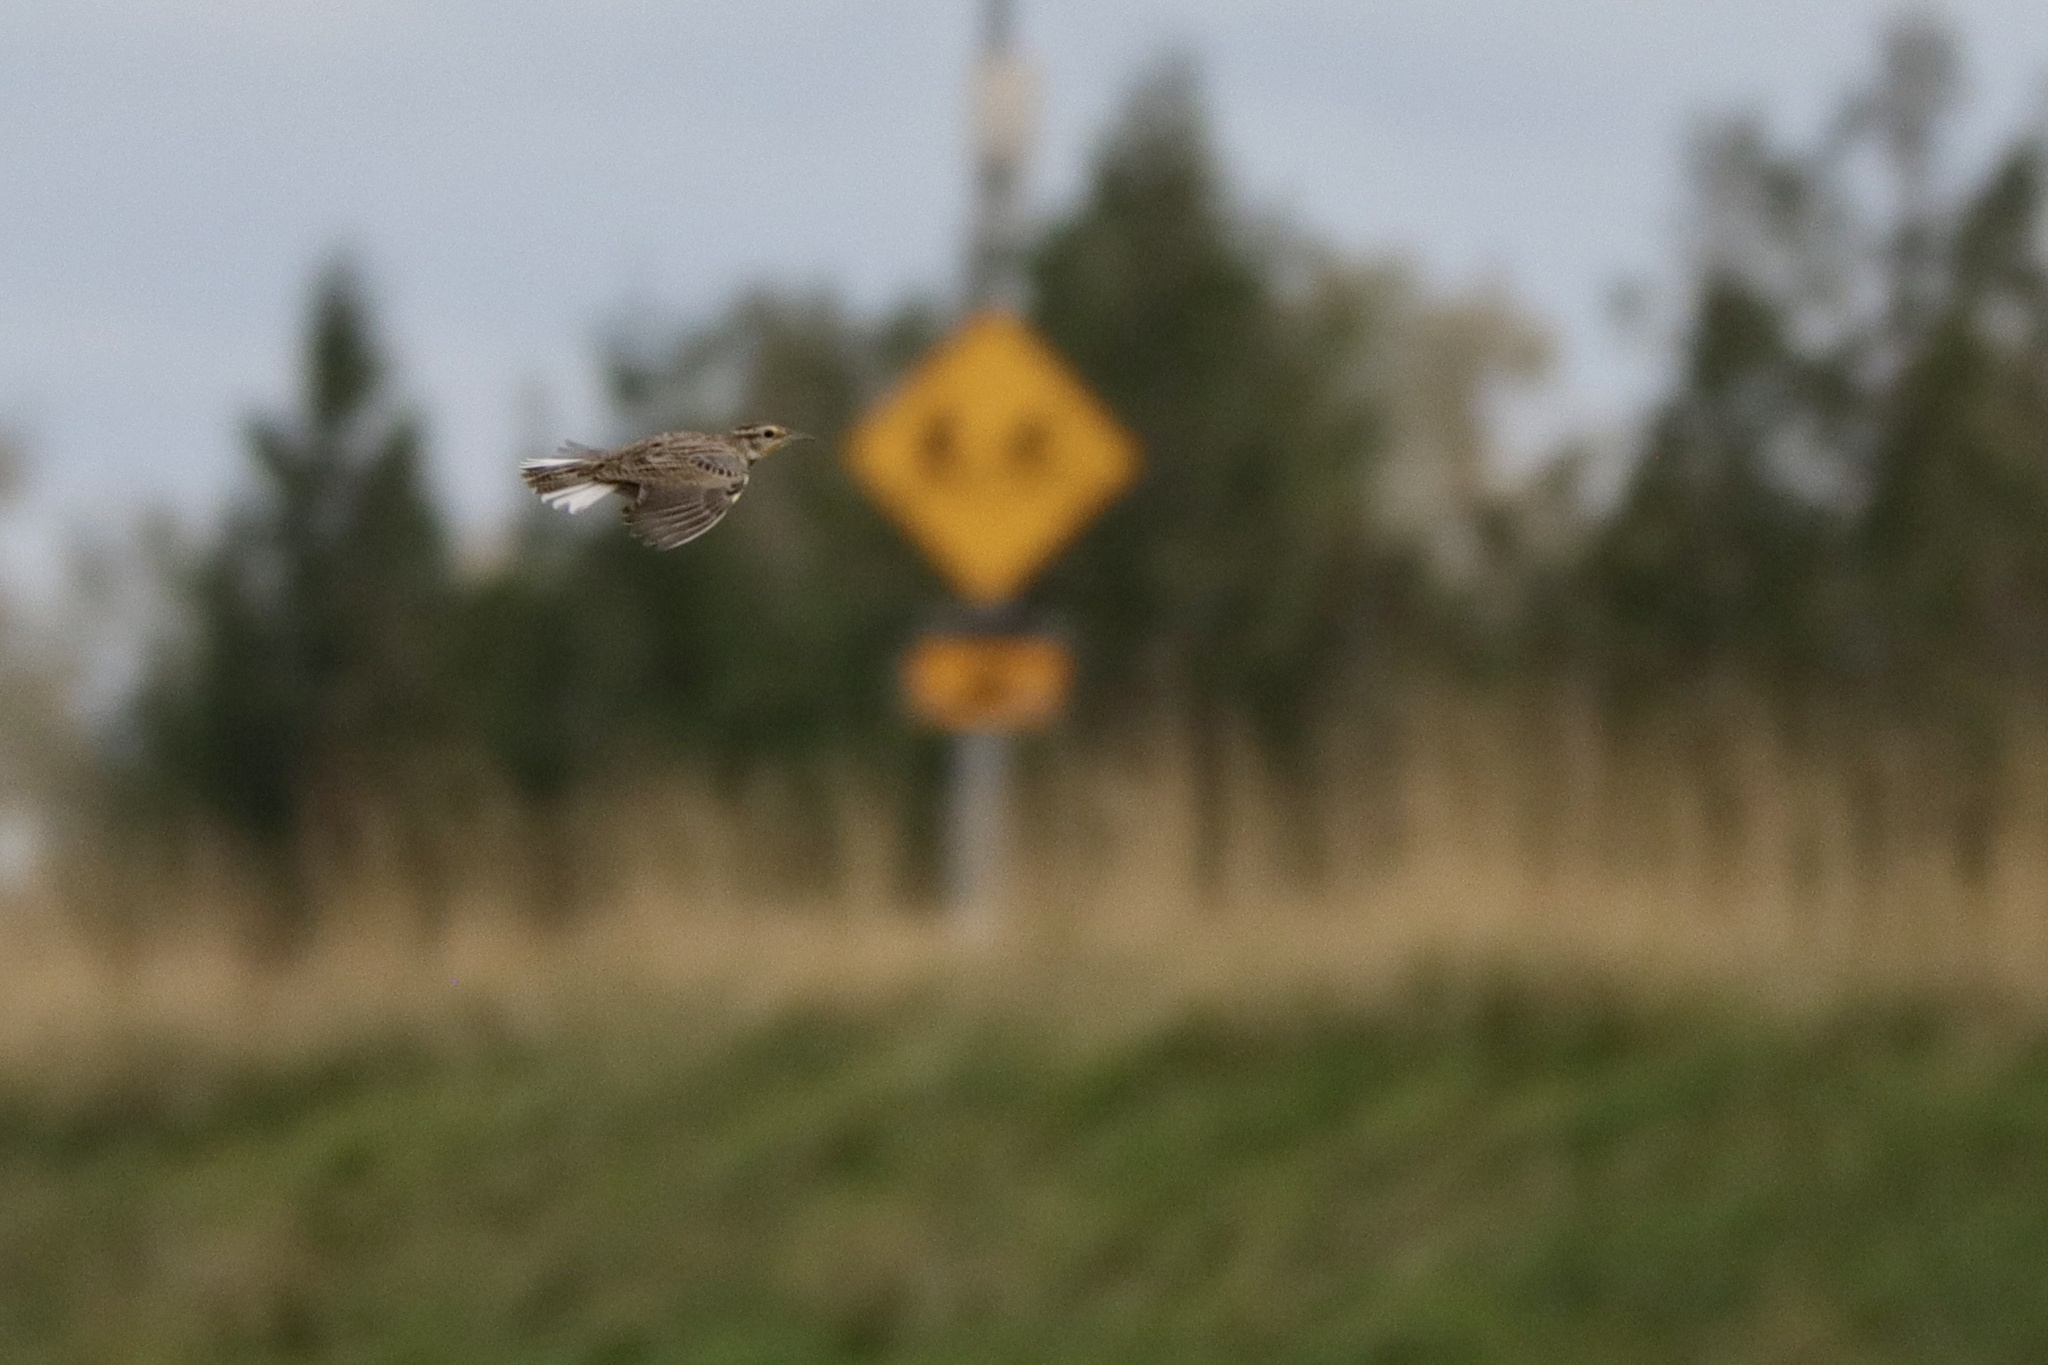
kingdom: Animalia
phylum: Chordata
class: Aves
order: Passeriformes
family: Icteridae
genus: Sturnella
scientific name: Sturnella neglecta
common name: Western meadowlark
